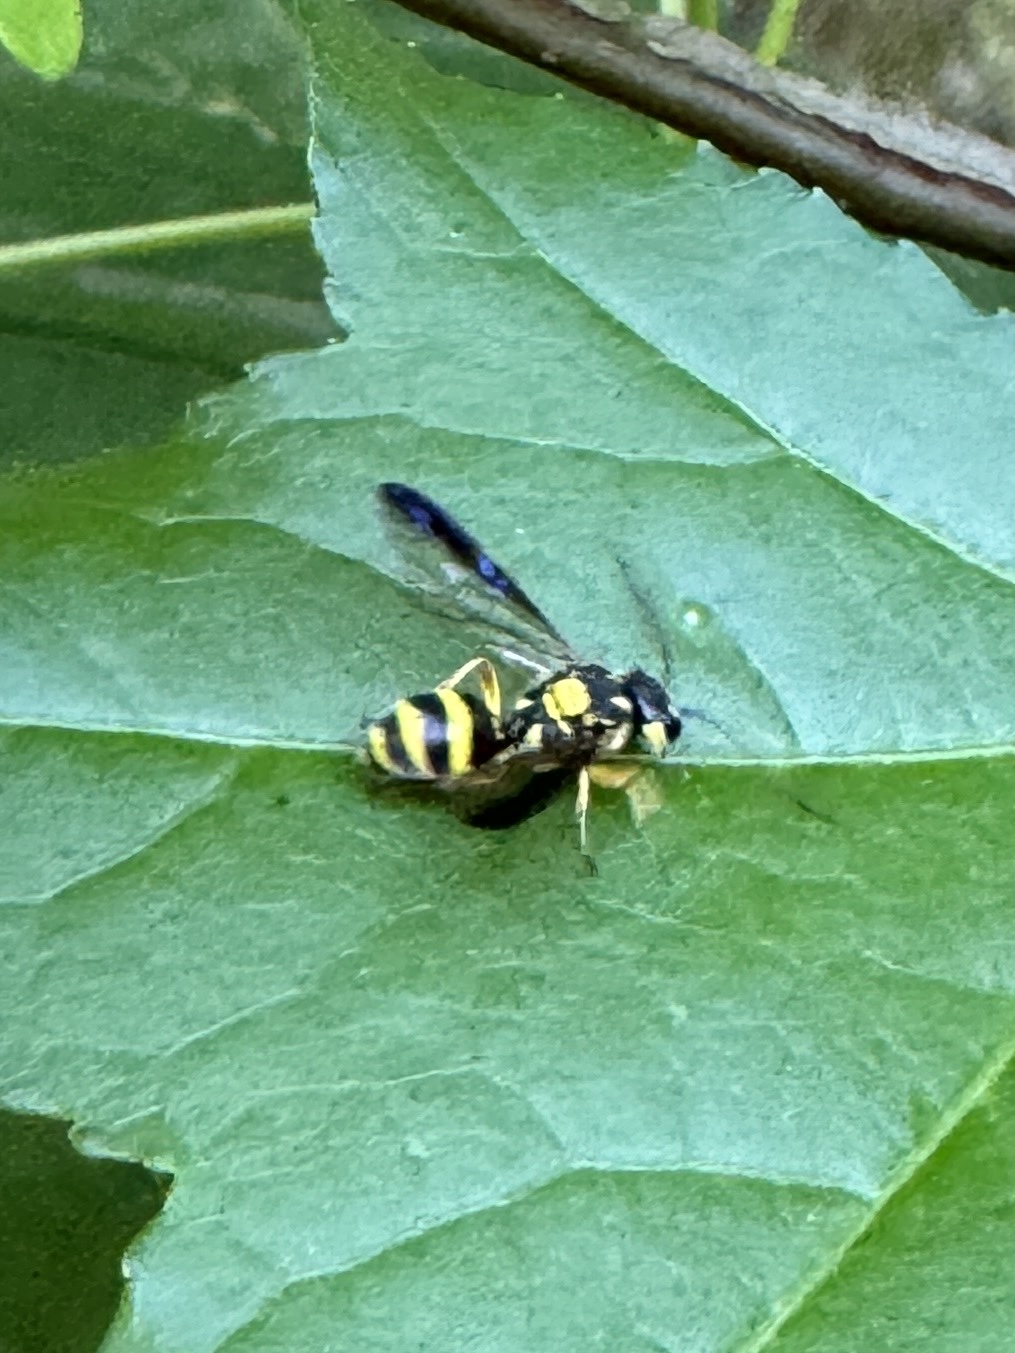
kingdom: Animalia
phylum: Arthropoda
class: Insecta
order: Hymenoptera
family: Trigonalidae
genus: Taeniogonalos
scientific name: Taeniogonalos gundlachii
